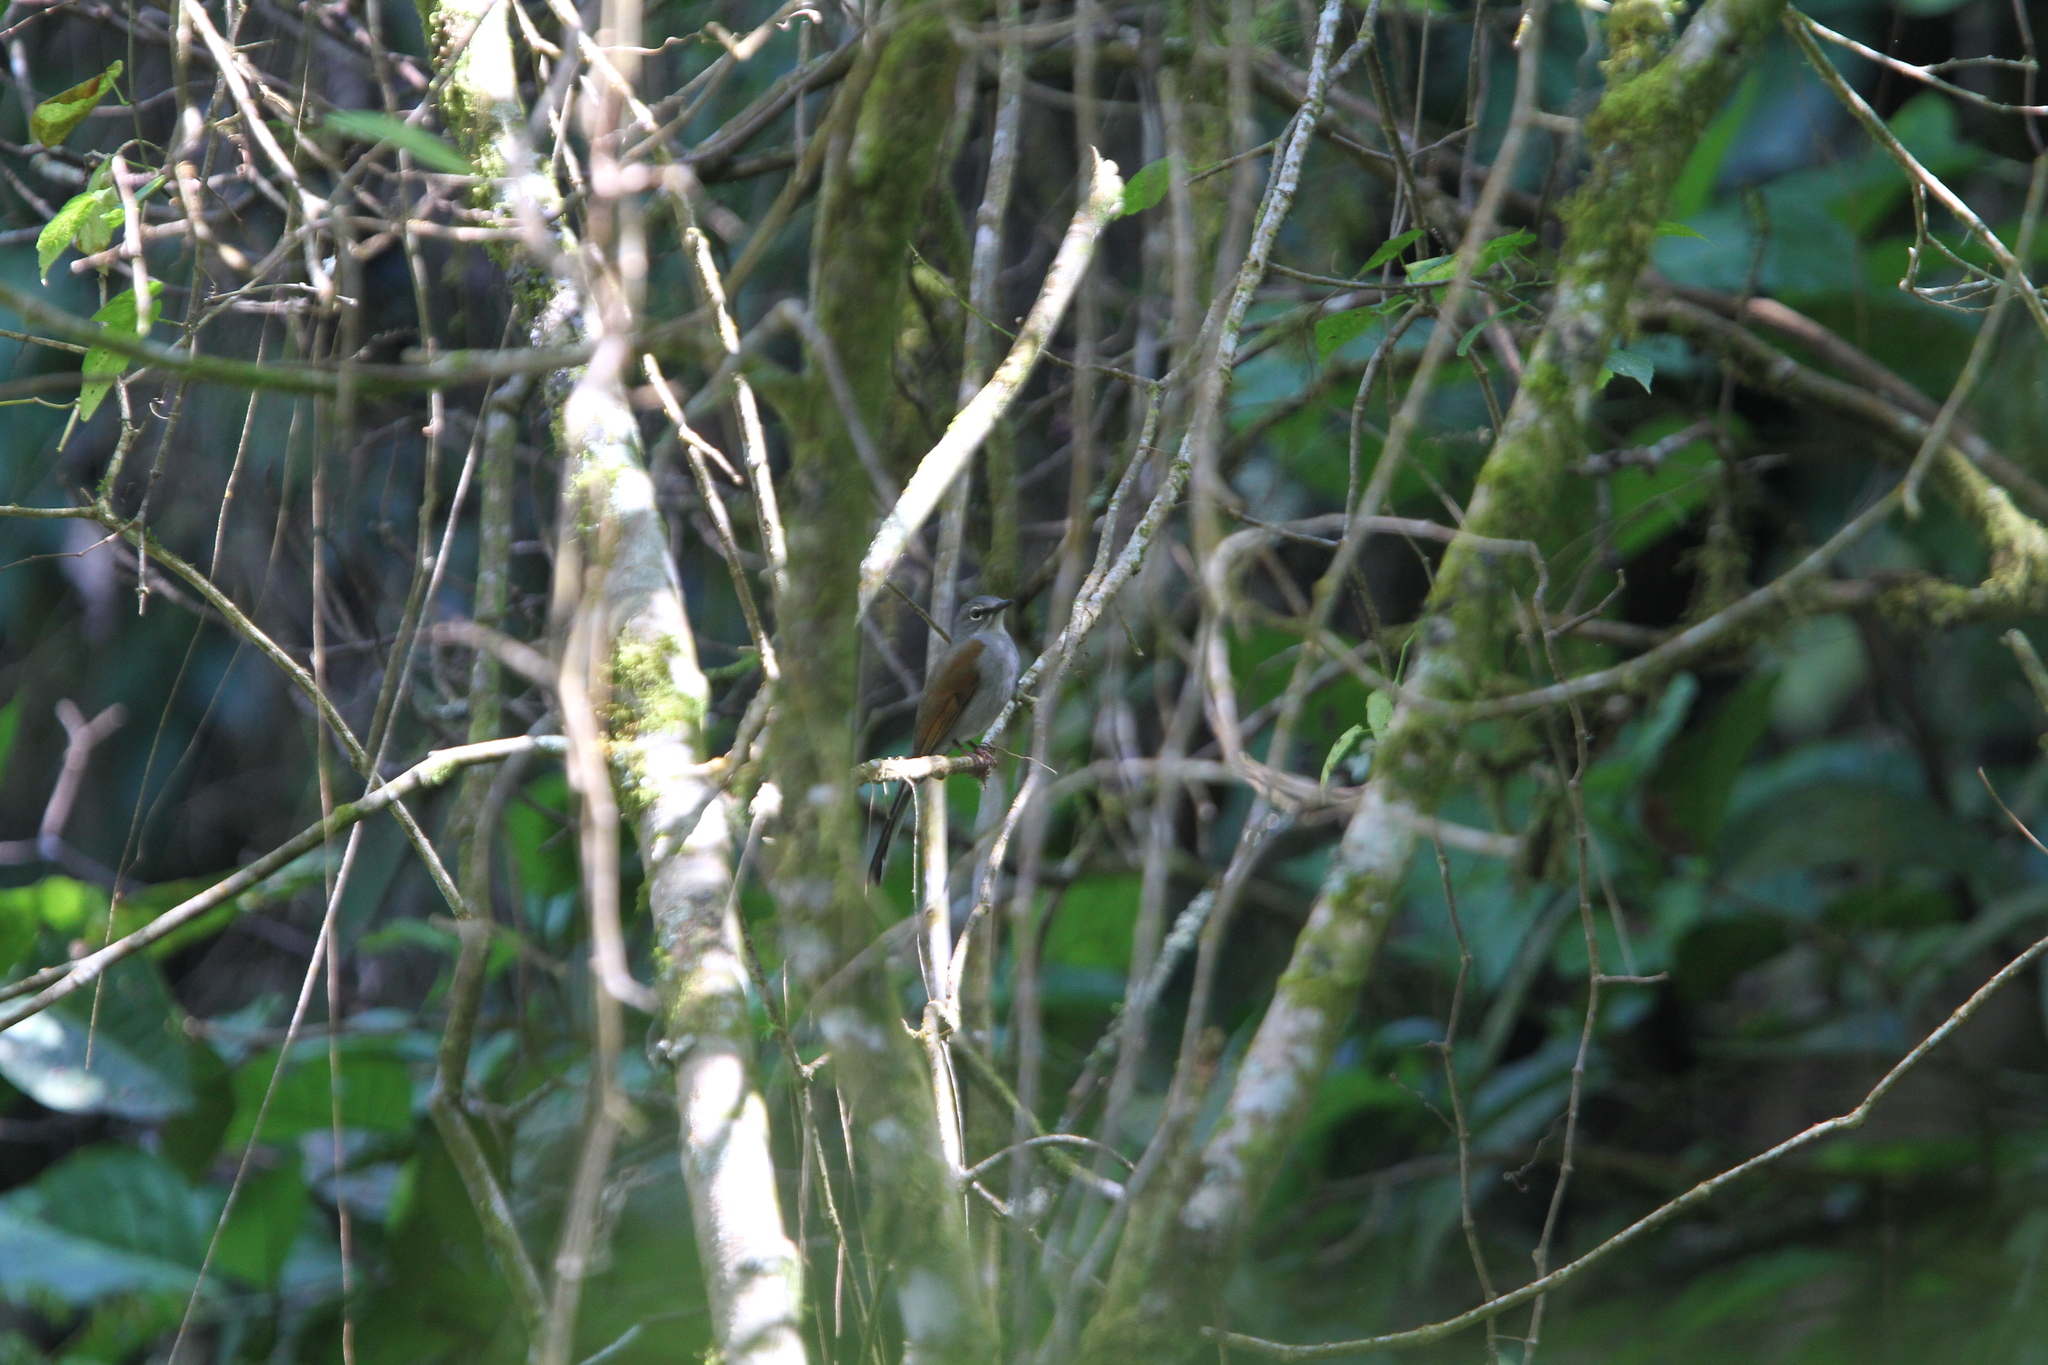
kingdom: Animalia
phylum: Chordata
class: Aves
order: Passeriformes
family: Turdidae
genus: Myadestes
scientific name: Myadestes occidentalis
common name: Brown-backed solitaire
